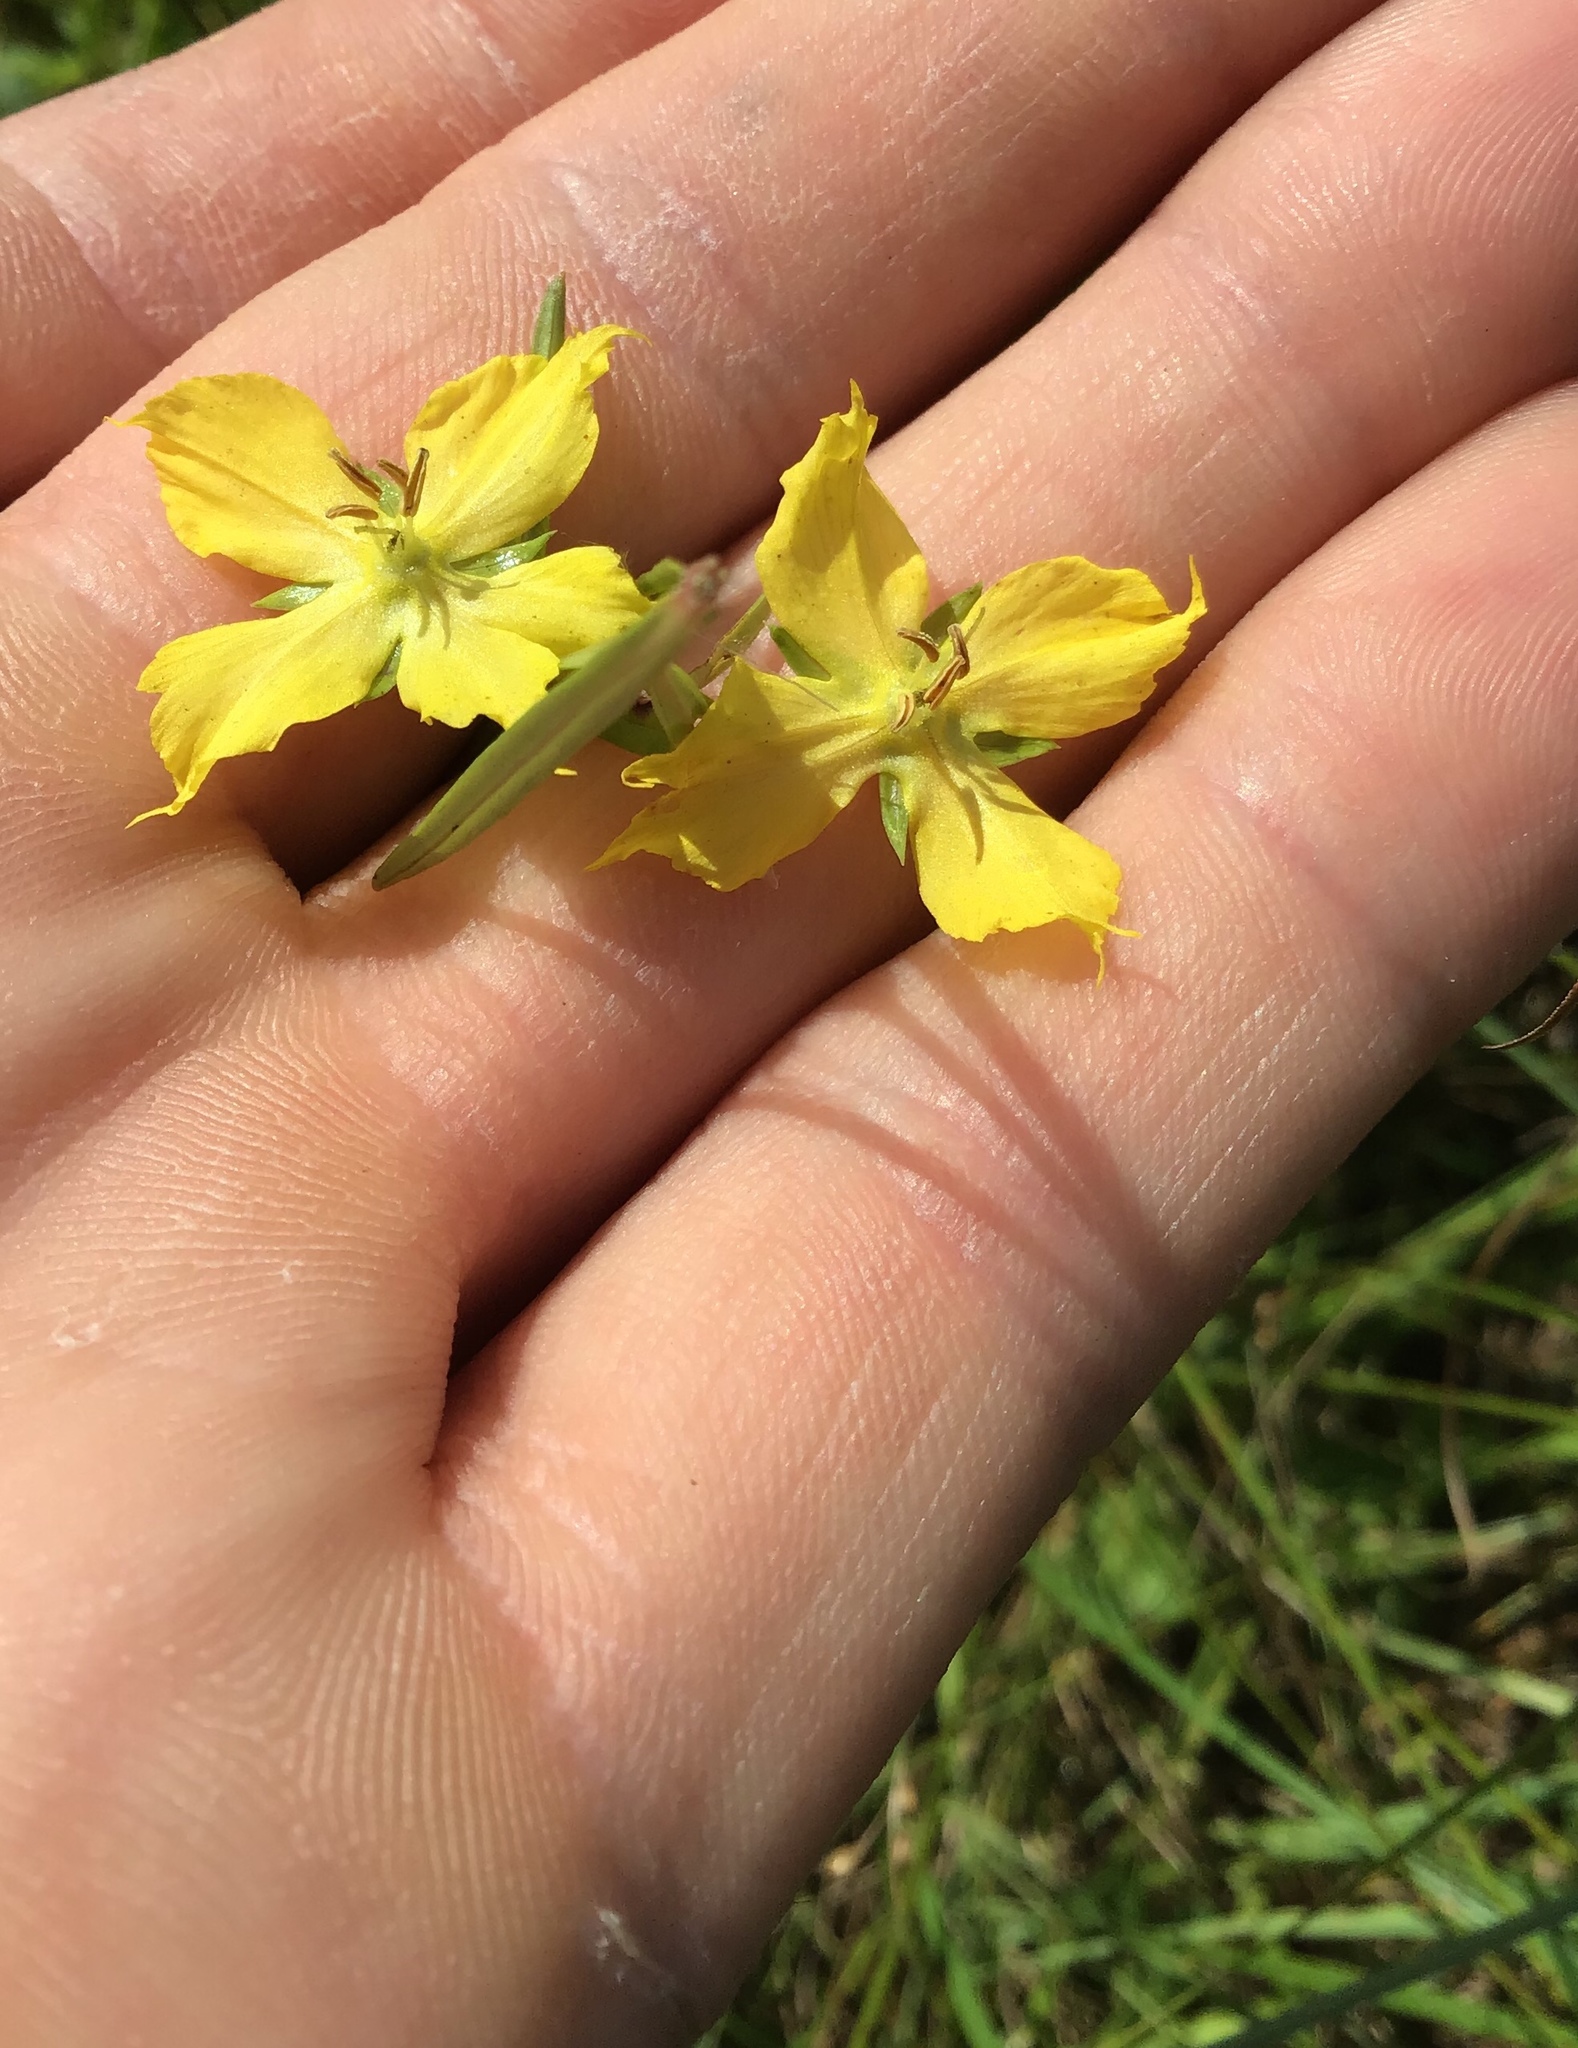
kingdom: Plantae
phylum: Tracheophyta
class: Magnoliopsida
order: Ericales
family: Primulaceae
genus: Lysimachia
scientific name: Lysimachia quadriflora
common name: Four-flowered loosestrife
